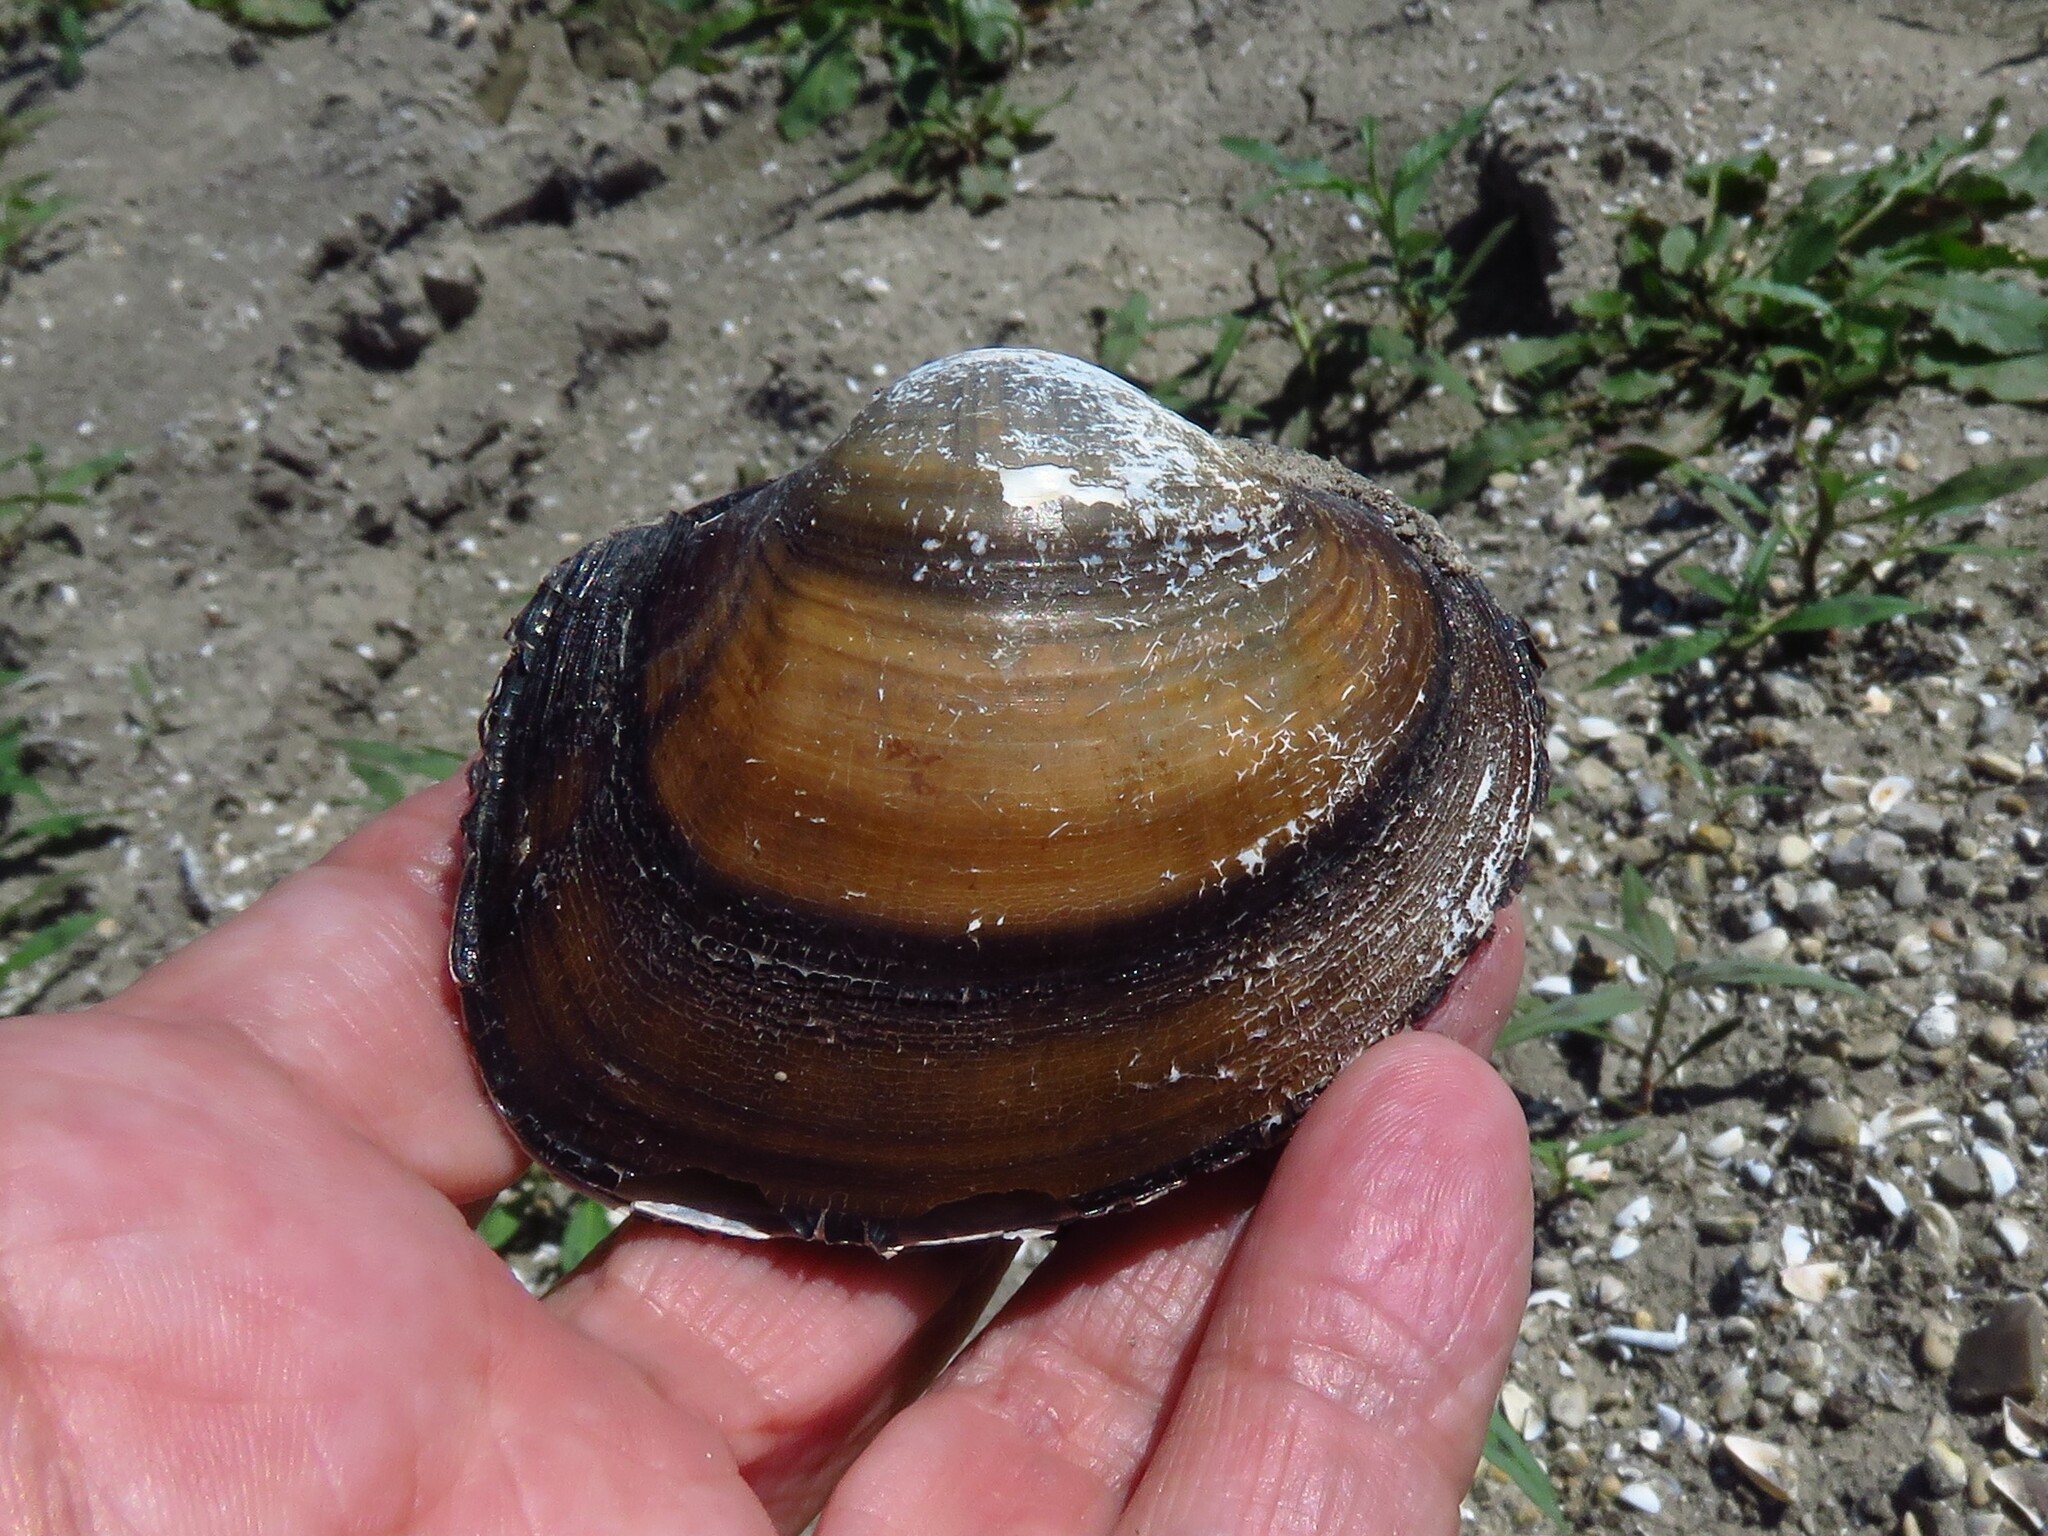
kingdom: Animalia
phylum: Mollusca
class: Bivalvia
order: Unionida
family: Unionidae
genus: Cyrtonaias
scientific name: Cyrtonaias tampicoensis
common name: Tampico pearlymussel
